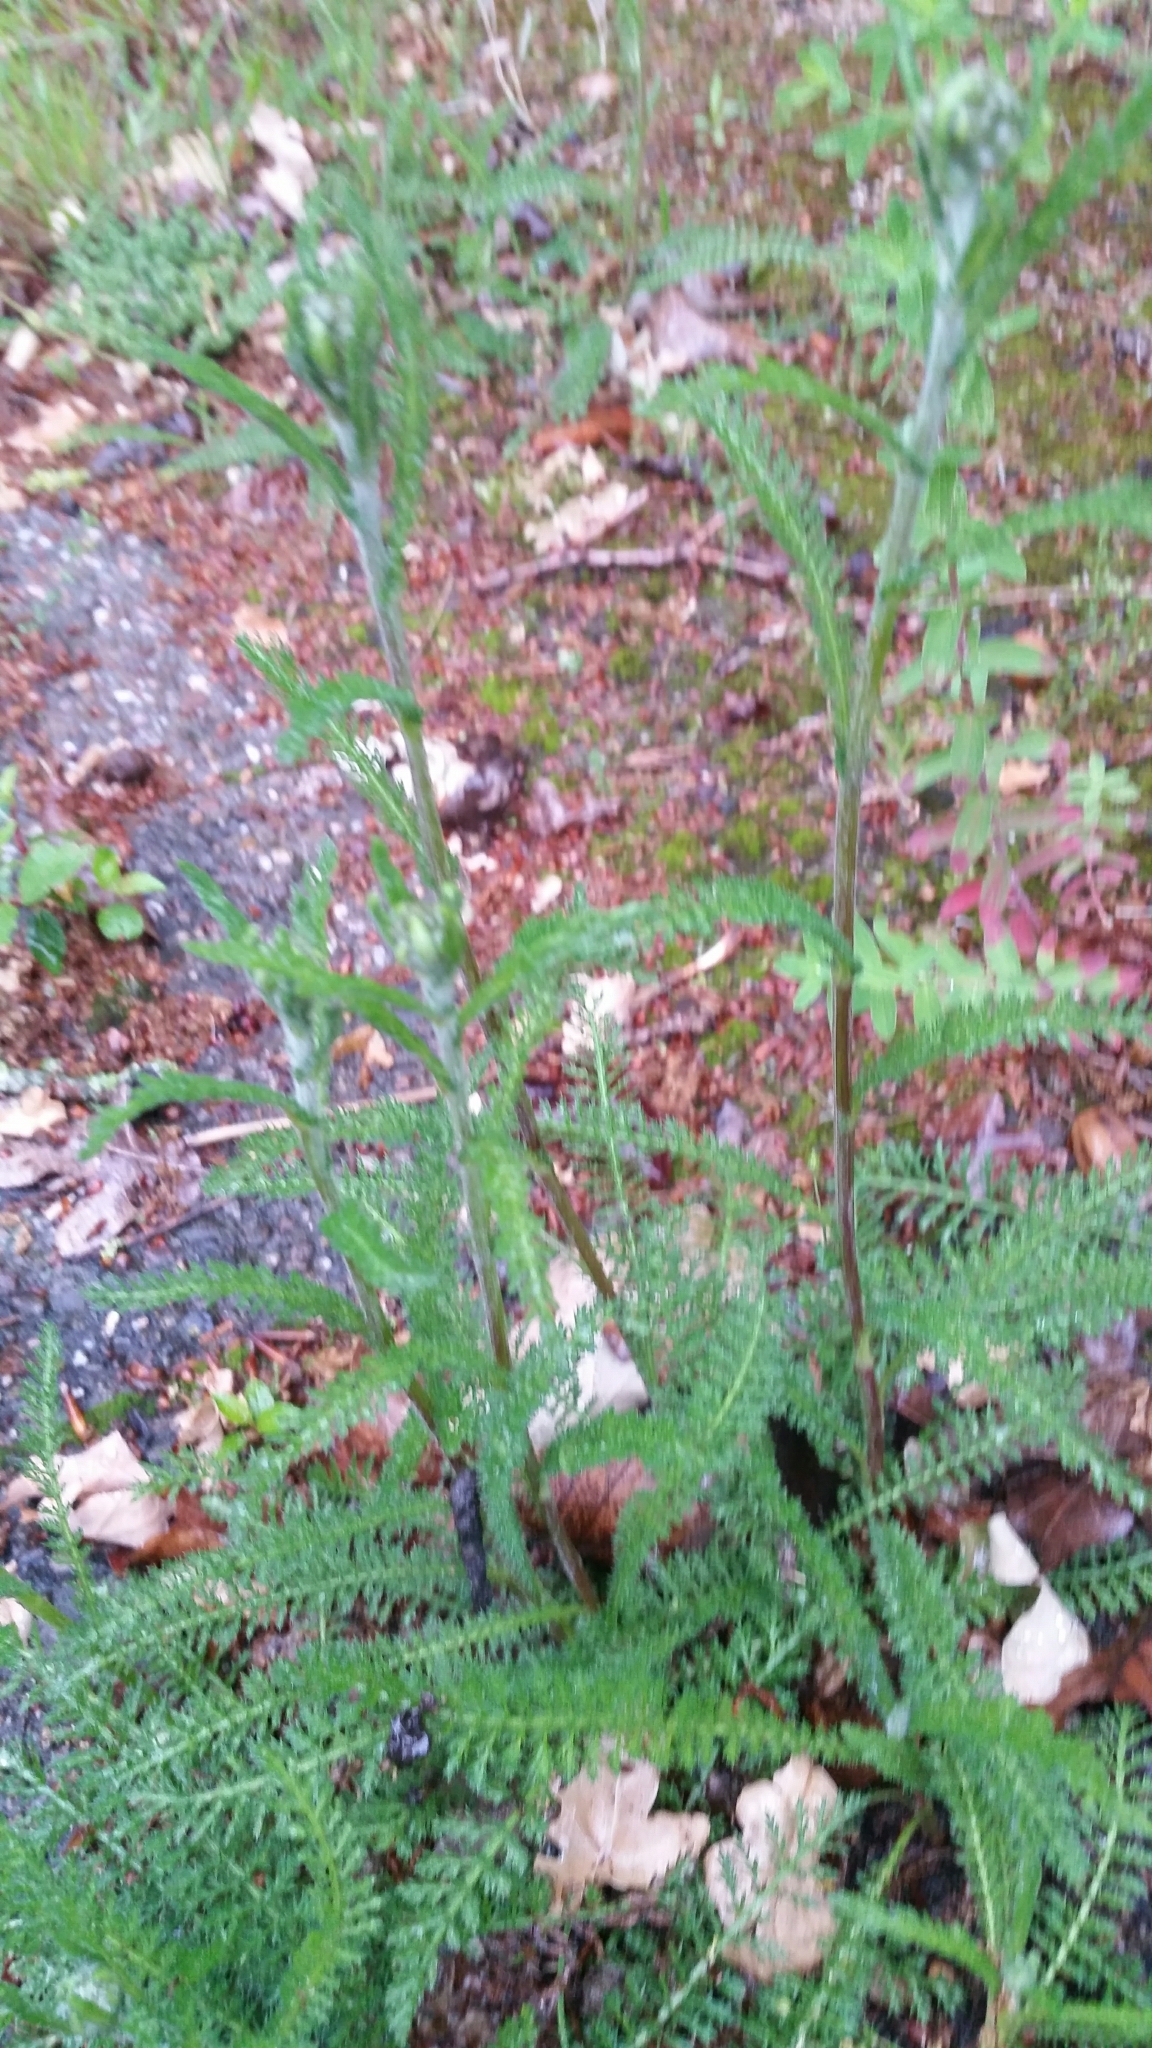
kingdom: Plantae
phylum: Tracheophyta
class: Magnoliopsida
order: Asterales
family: Asteraceae
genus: Achillea
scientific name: Achillea millefolium
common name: Yarrow
